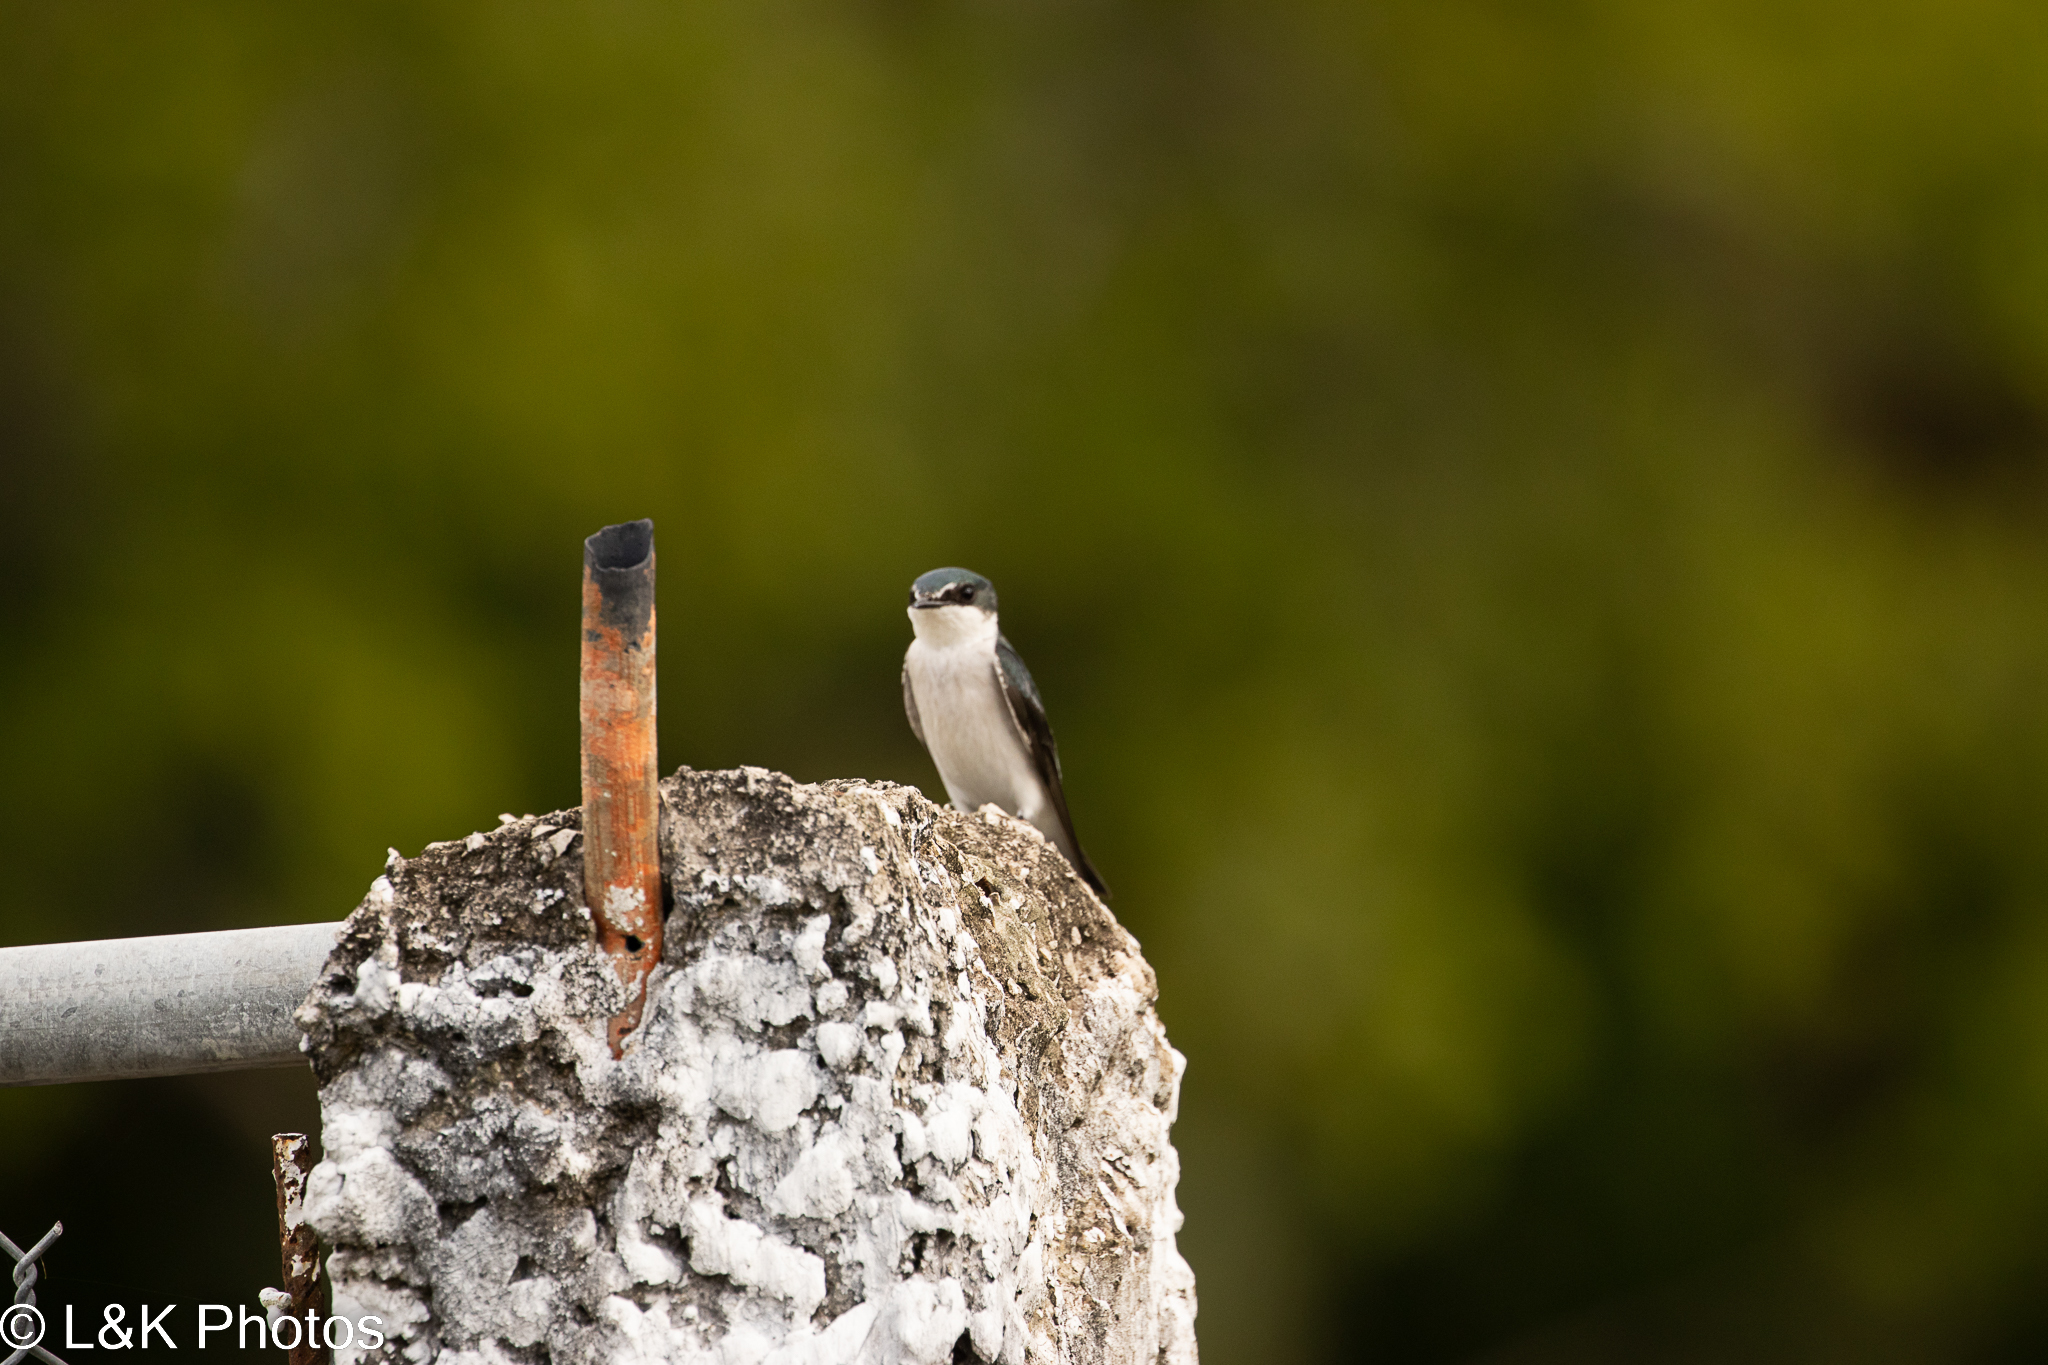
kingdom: Animalia
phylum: Chordata
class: Aves
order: Passeriformes
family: Hirundinidae
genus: Tachycineta
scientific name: Tachycineta albilinea
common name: Mangrove swallow
